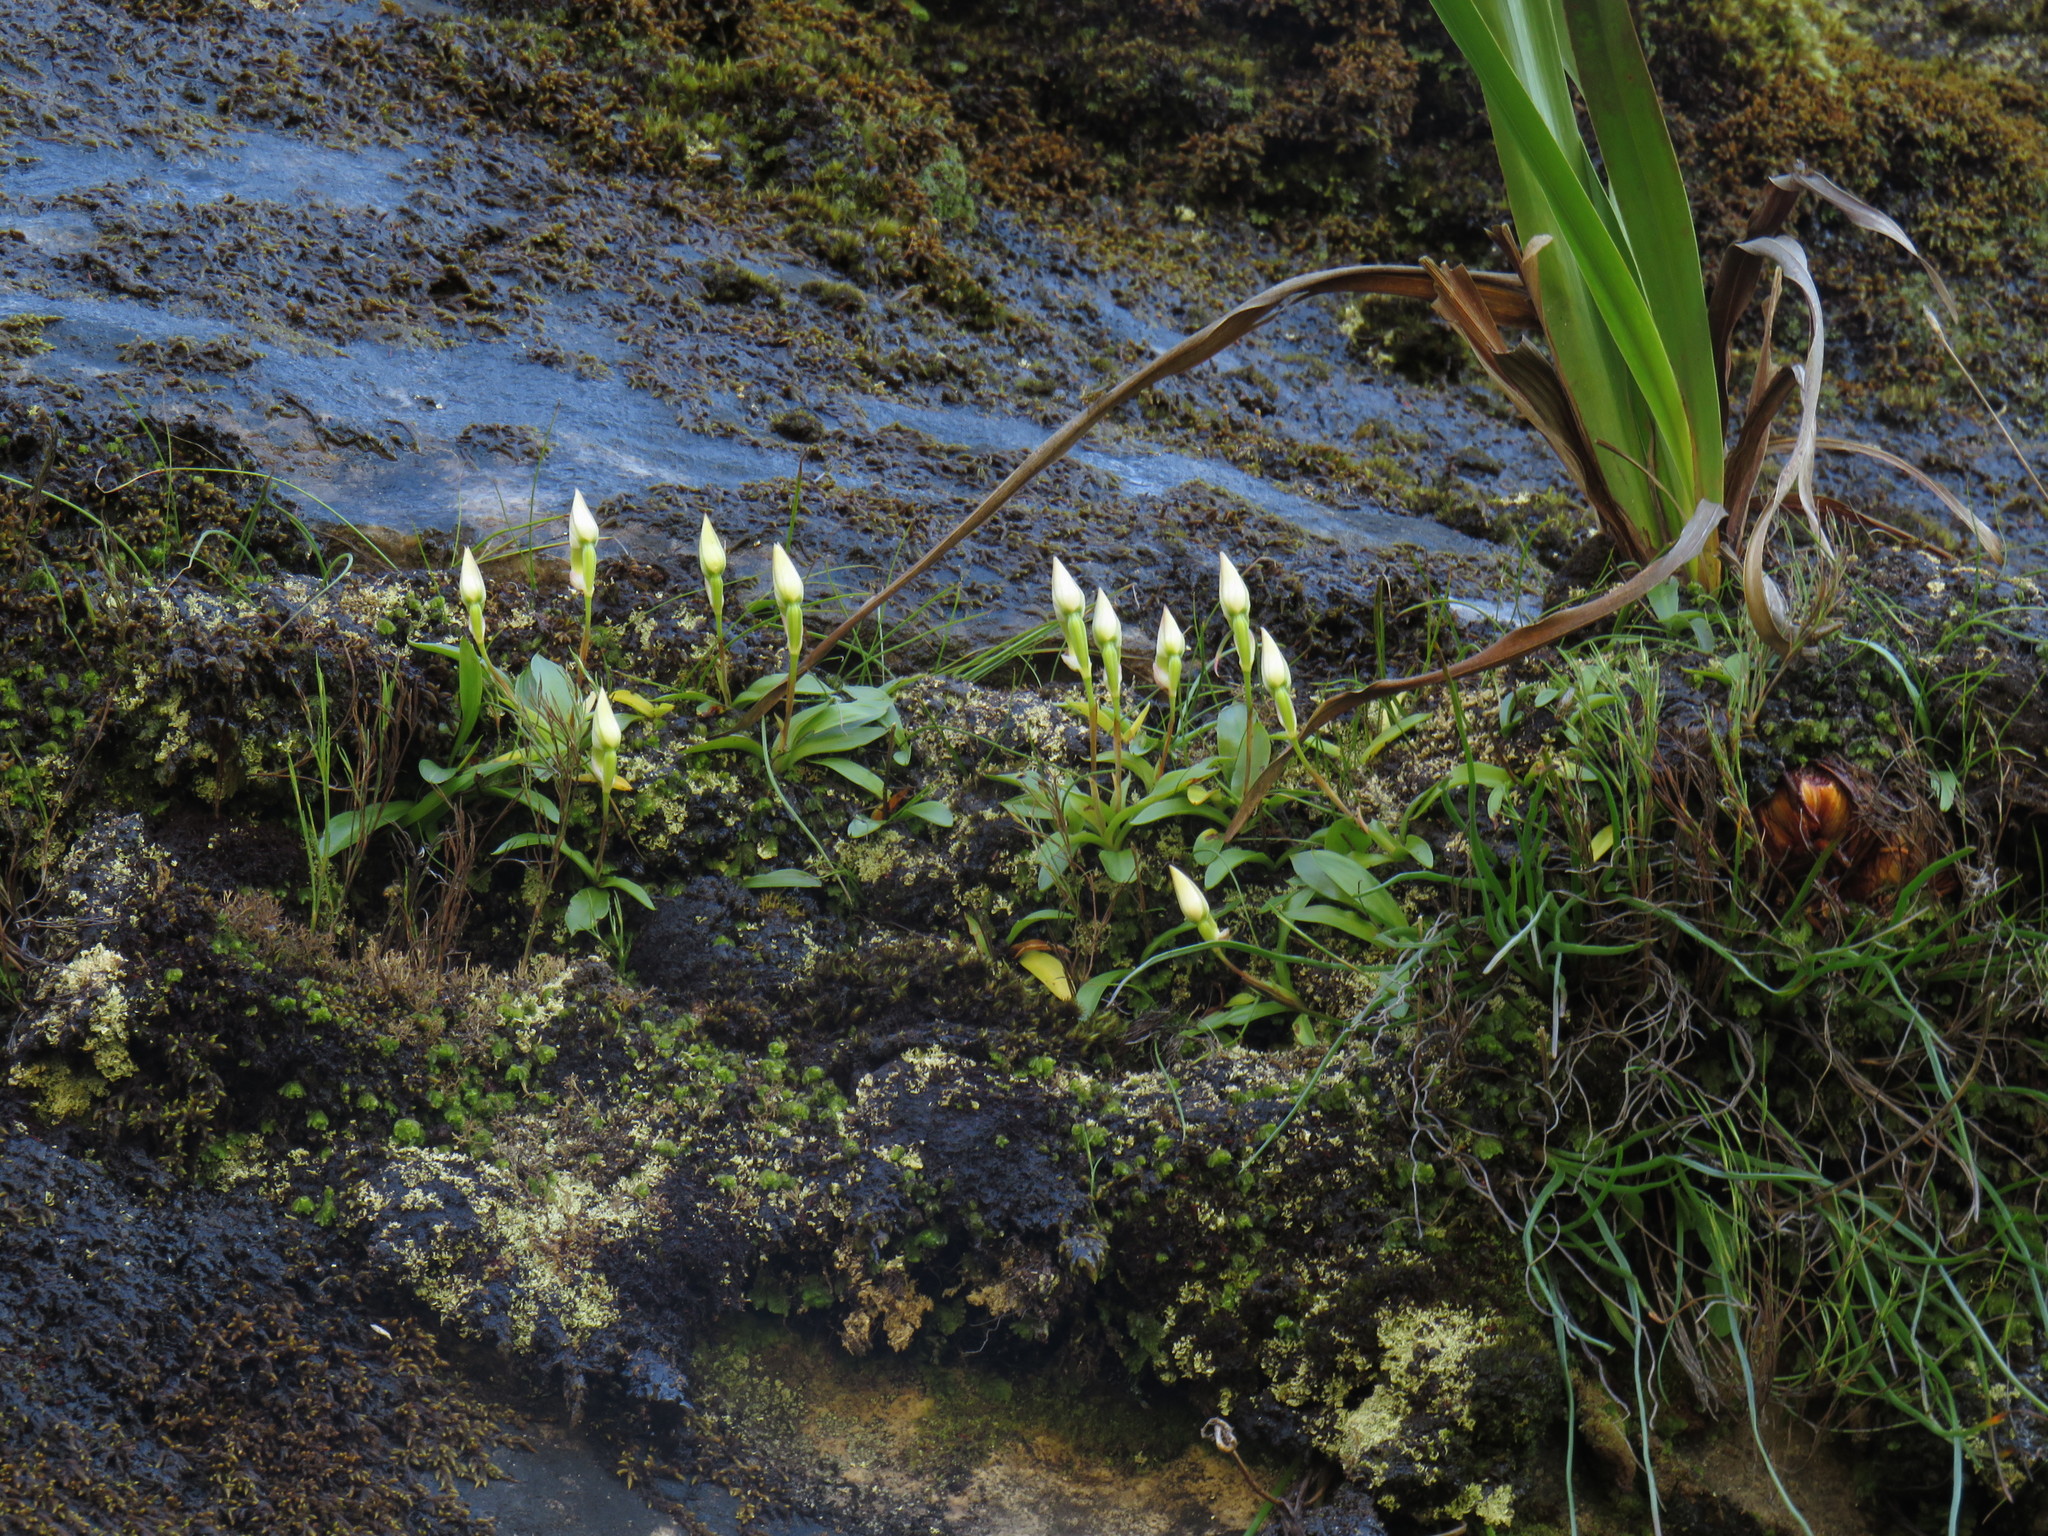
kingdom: Plantae
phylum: Tracheophyta
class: Liliopsida
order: Asparagales
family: Orchidaceae
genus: Disa
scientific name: Disa longicornu
